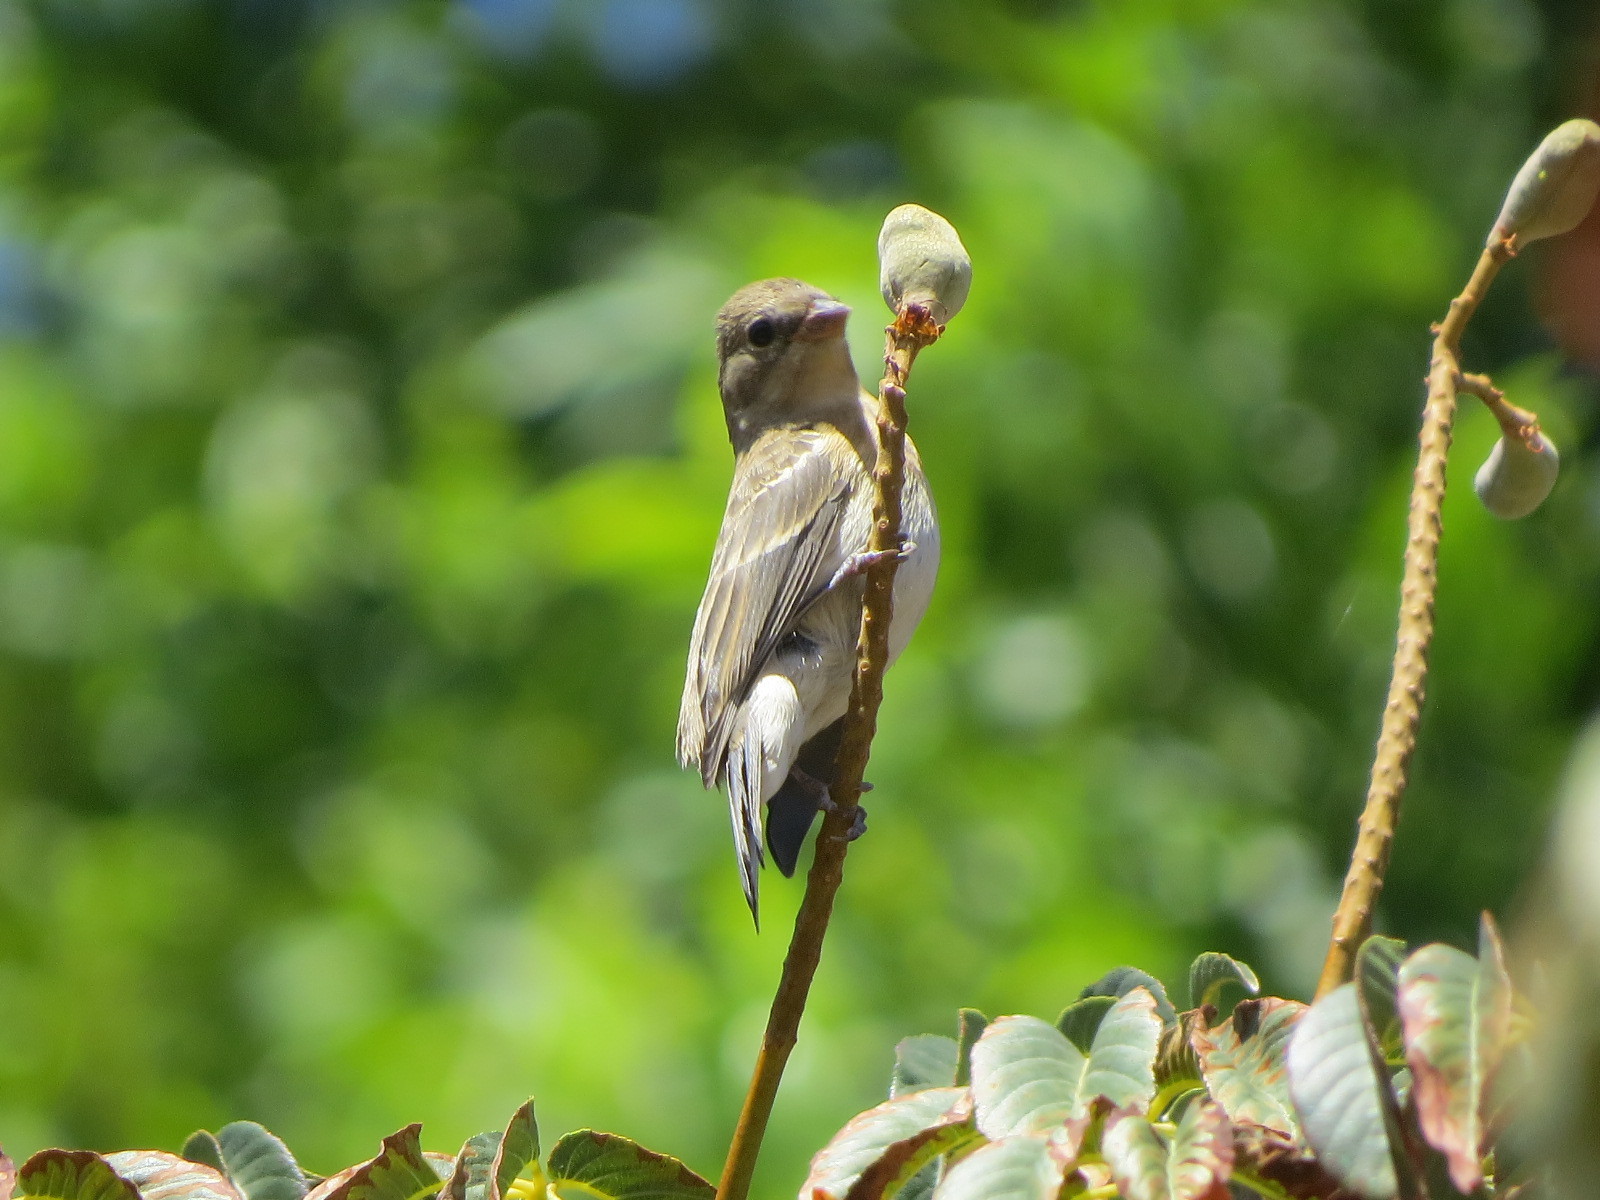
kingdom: Animalia
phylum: Chordata
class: Aves
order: Passeriformes
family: Cardinalidae
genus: Passerina
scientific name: Passerina amoena
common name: Lazuli bunting
